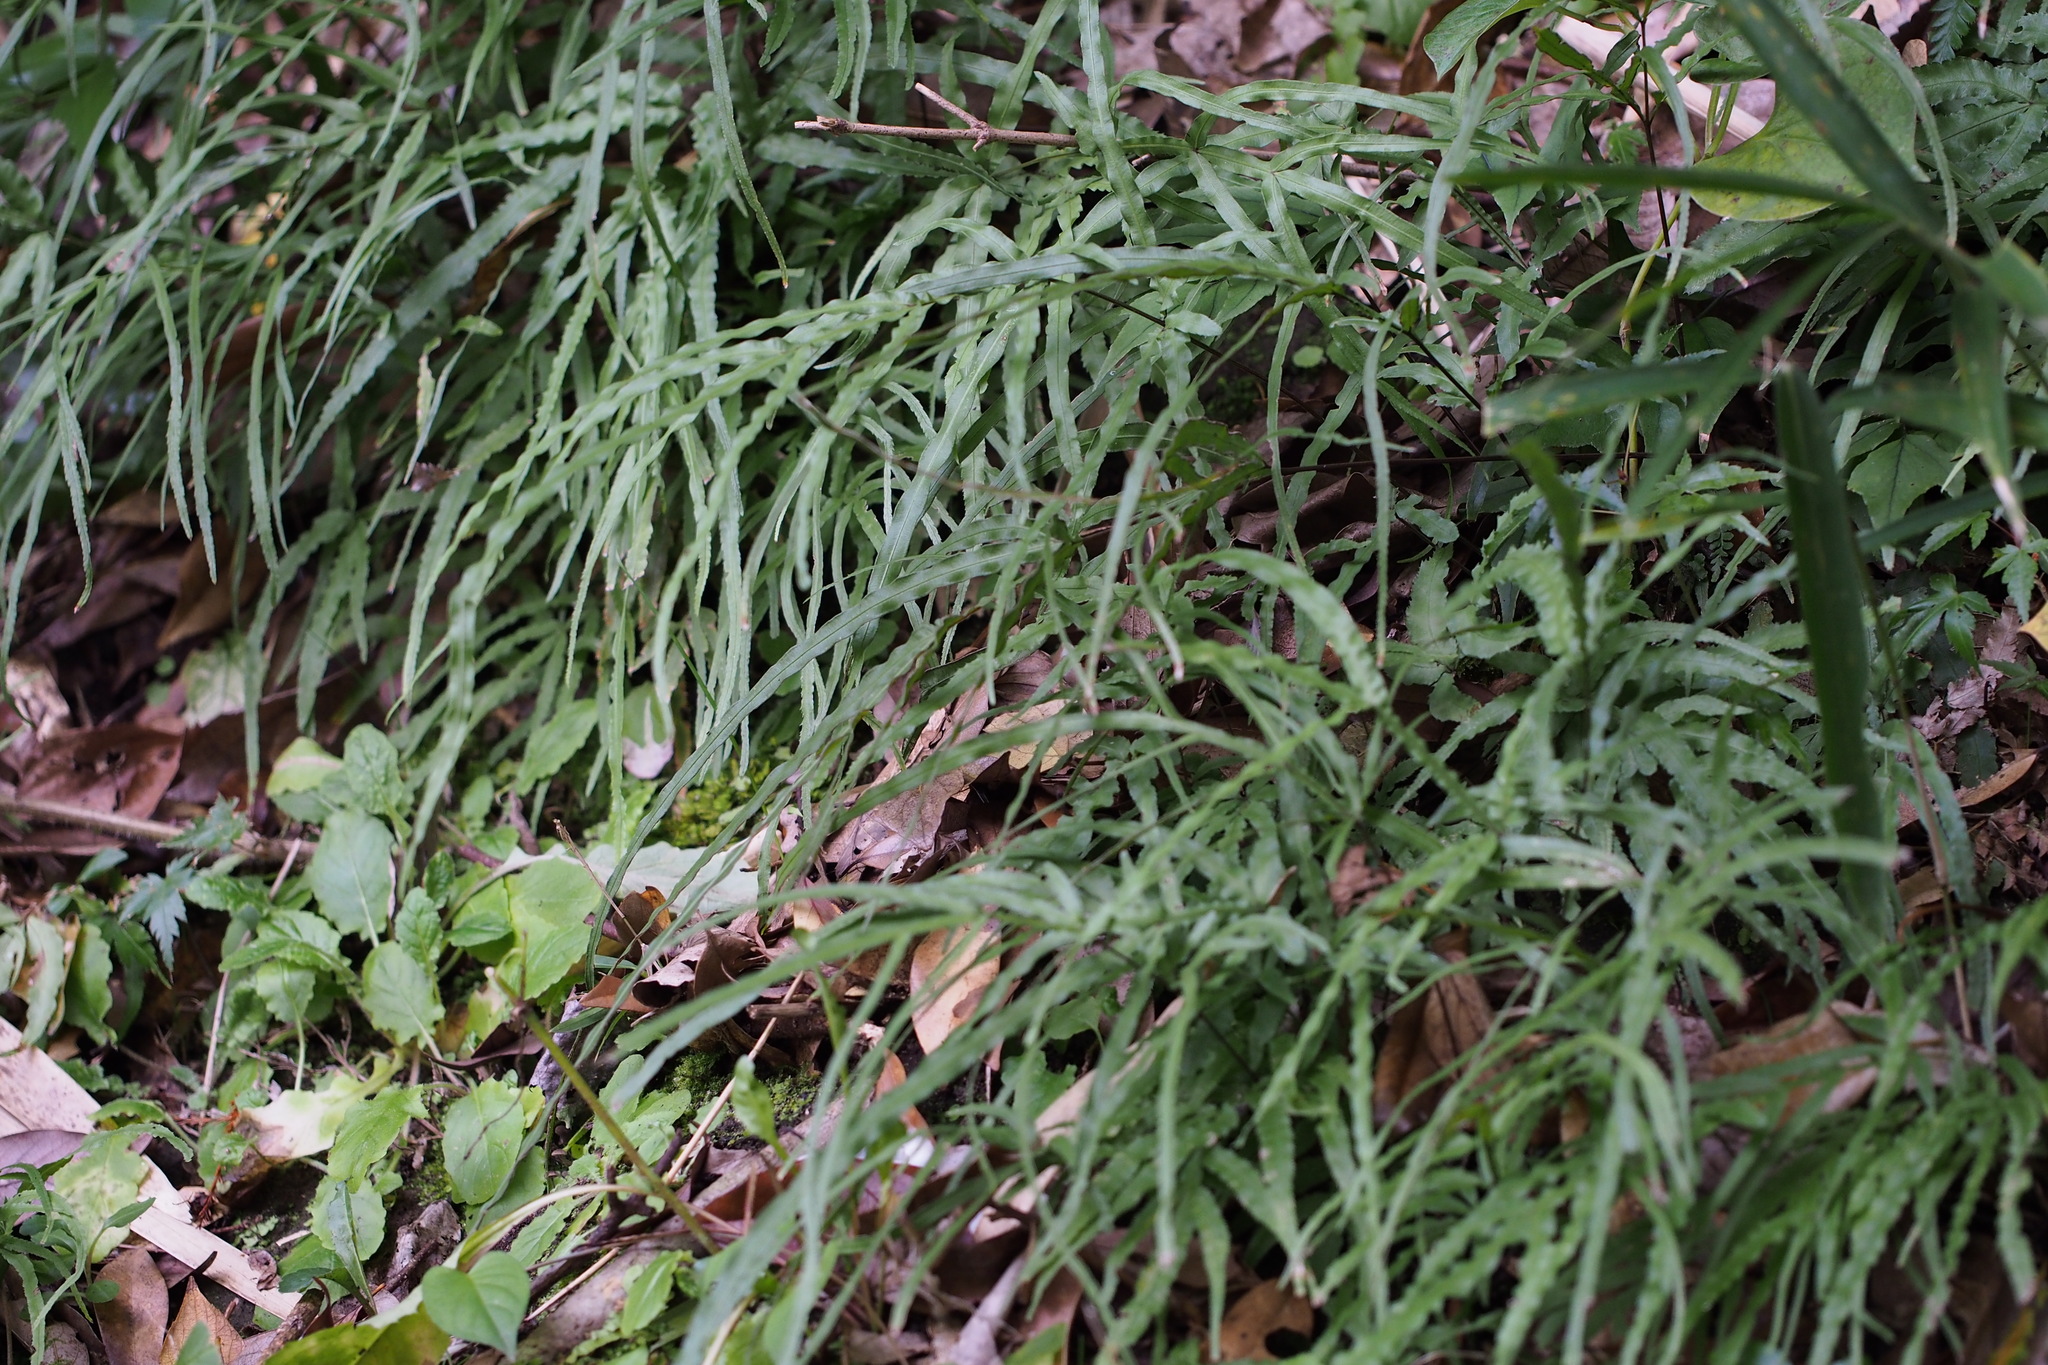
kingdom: Plantae
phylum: Tracheophyta
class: Polypodiopsida
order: Polypodiales
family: Pteridaceae
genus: Pteris
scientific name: Pteris multifida
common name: Spider brake
